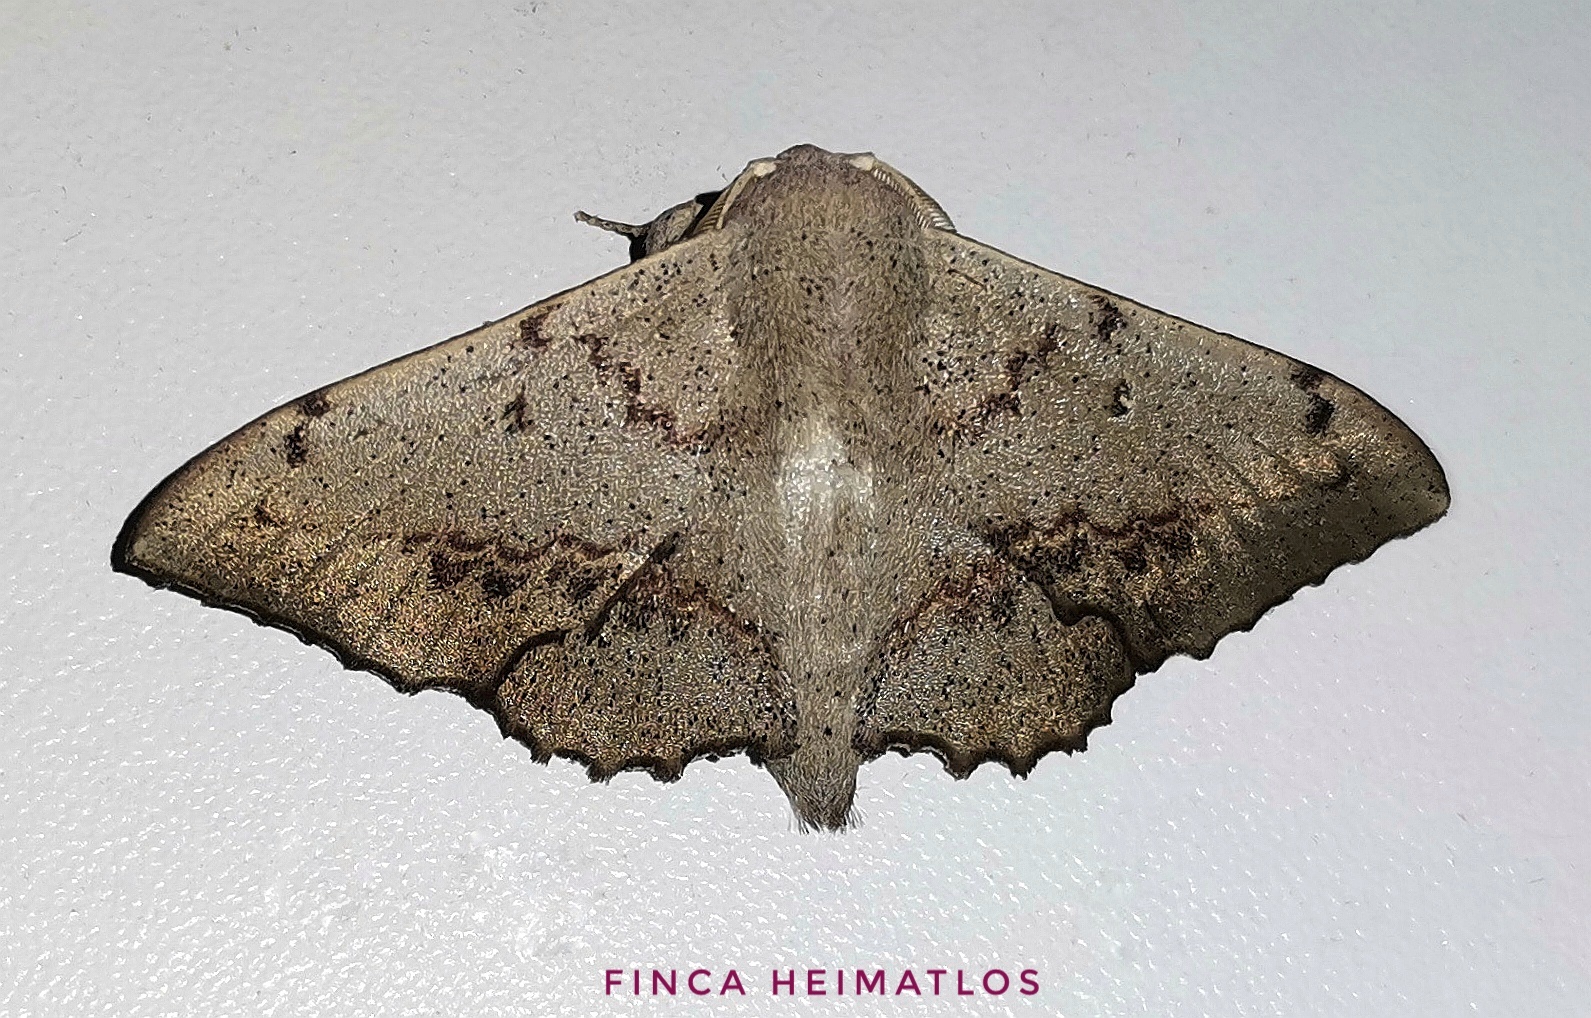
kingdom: Animalia
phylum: Arthropoda
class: Insecta
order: Lepidoptera
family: Mimallonidae
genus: Mimallo
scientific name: Mimallo brosica
